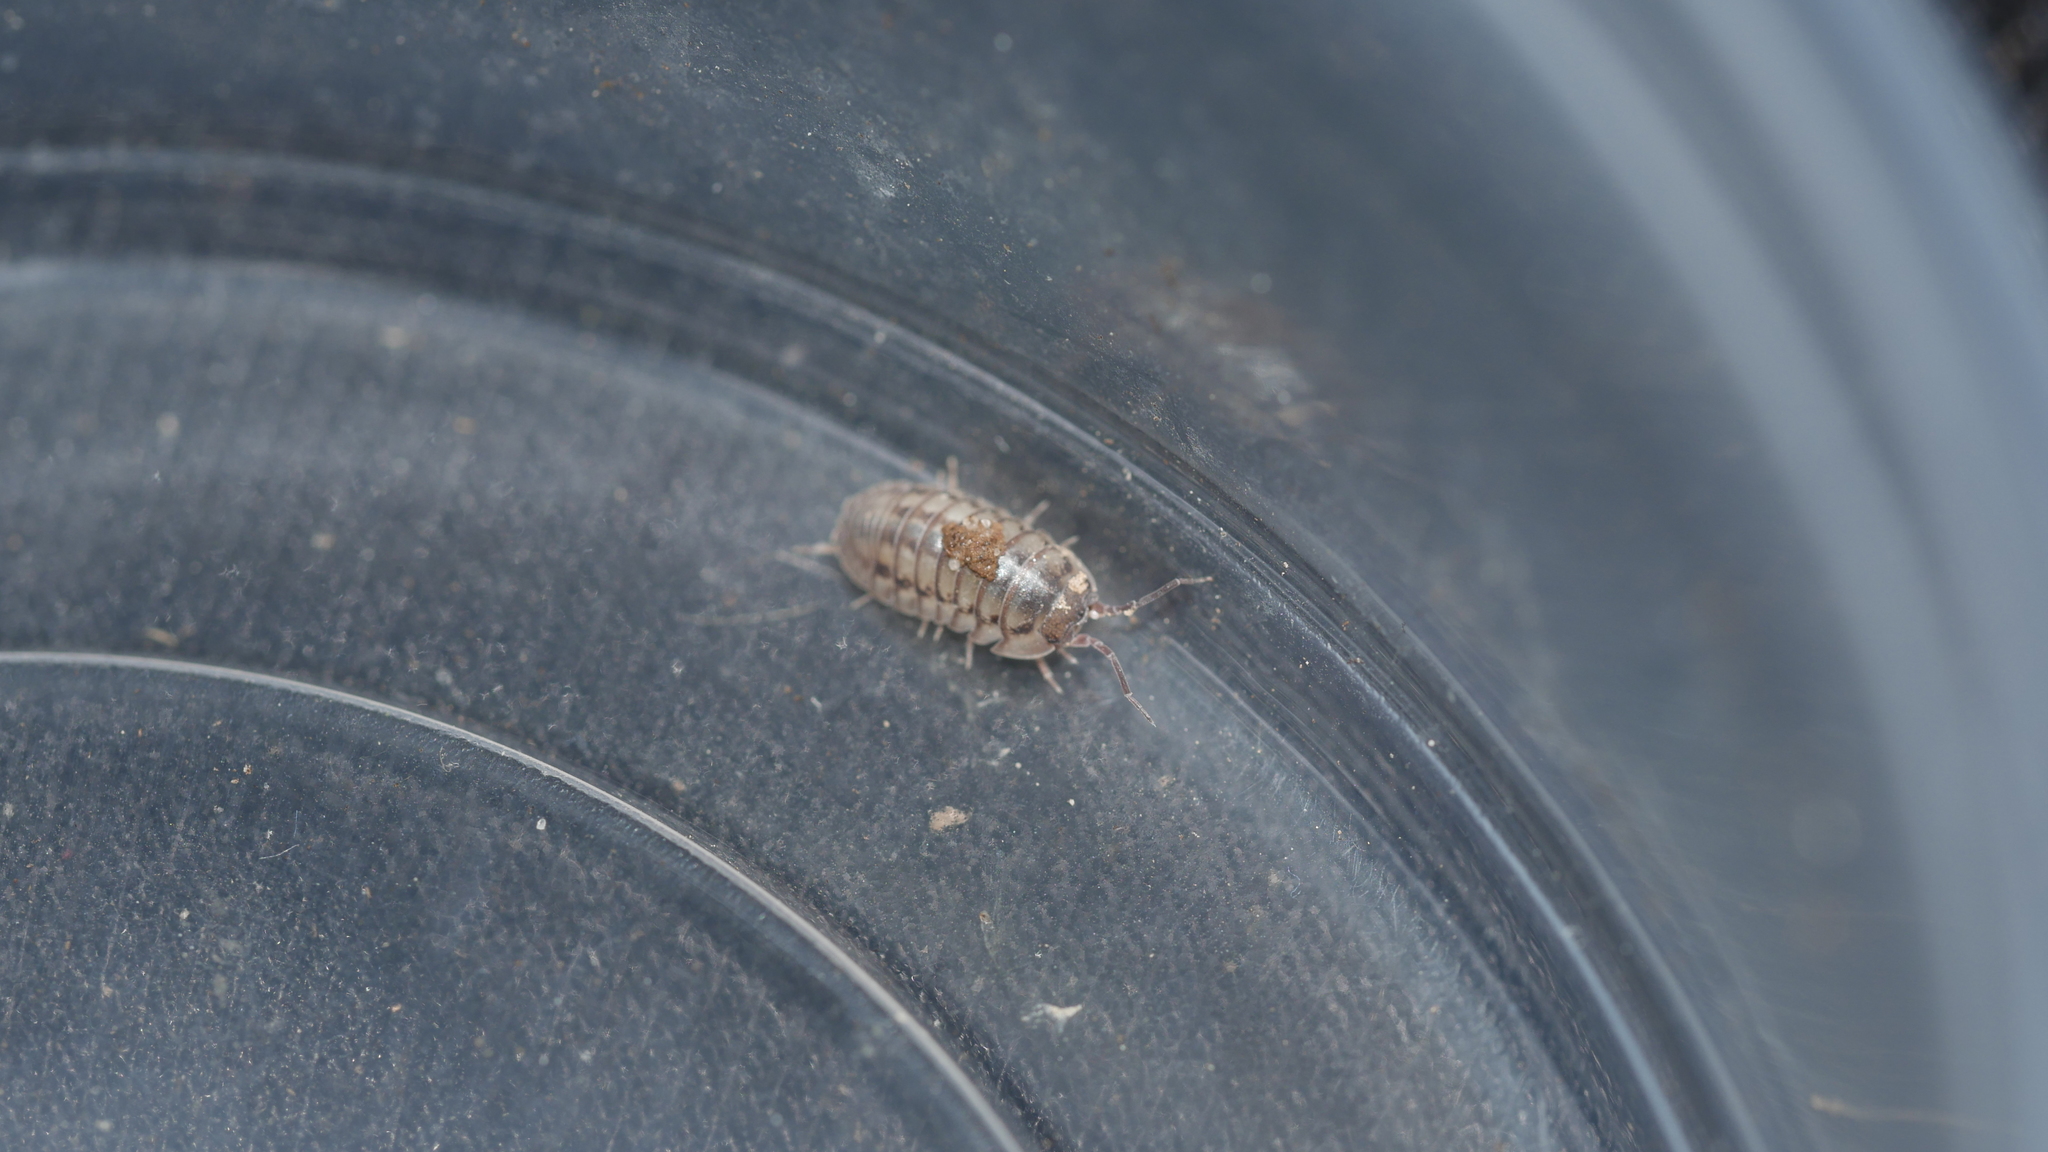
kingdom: Animalia
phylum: Arthropoda
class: Malacostraca
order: Isopoda
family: Armadillidiidae
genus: Armadillidium
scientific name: Armadillidium nasatum
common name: Isopod
